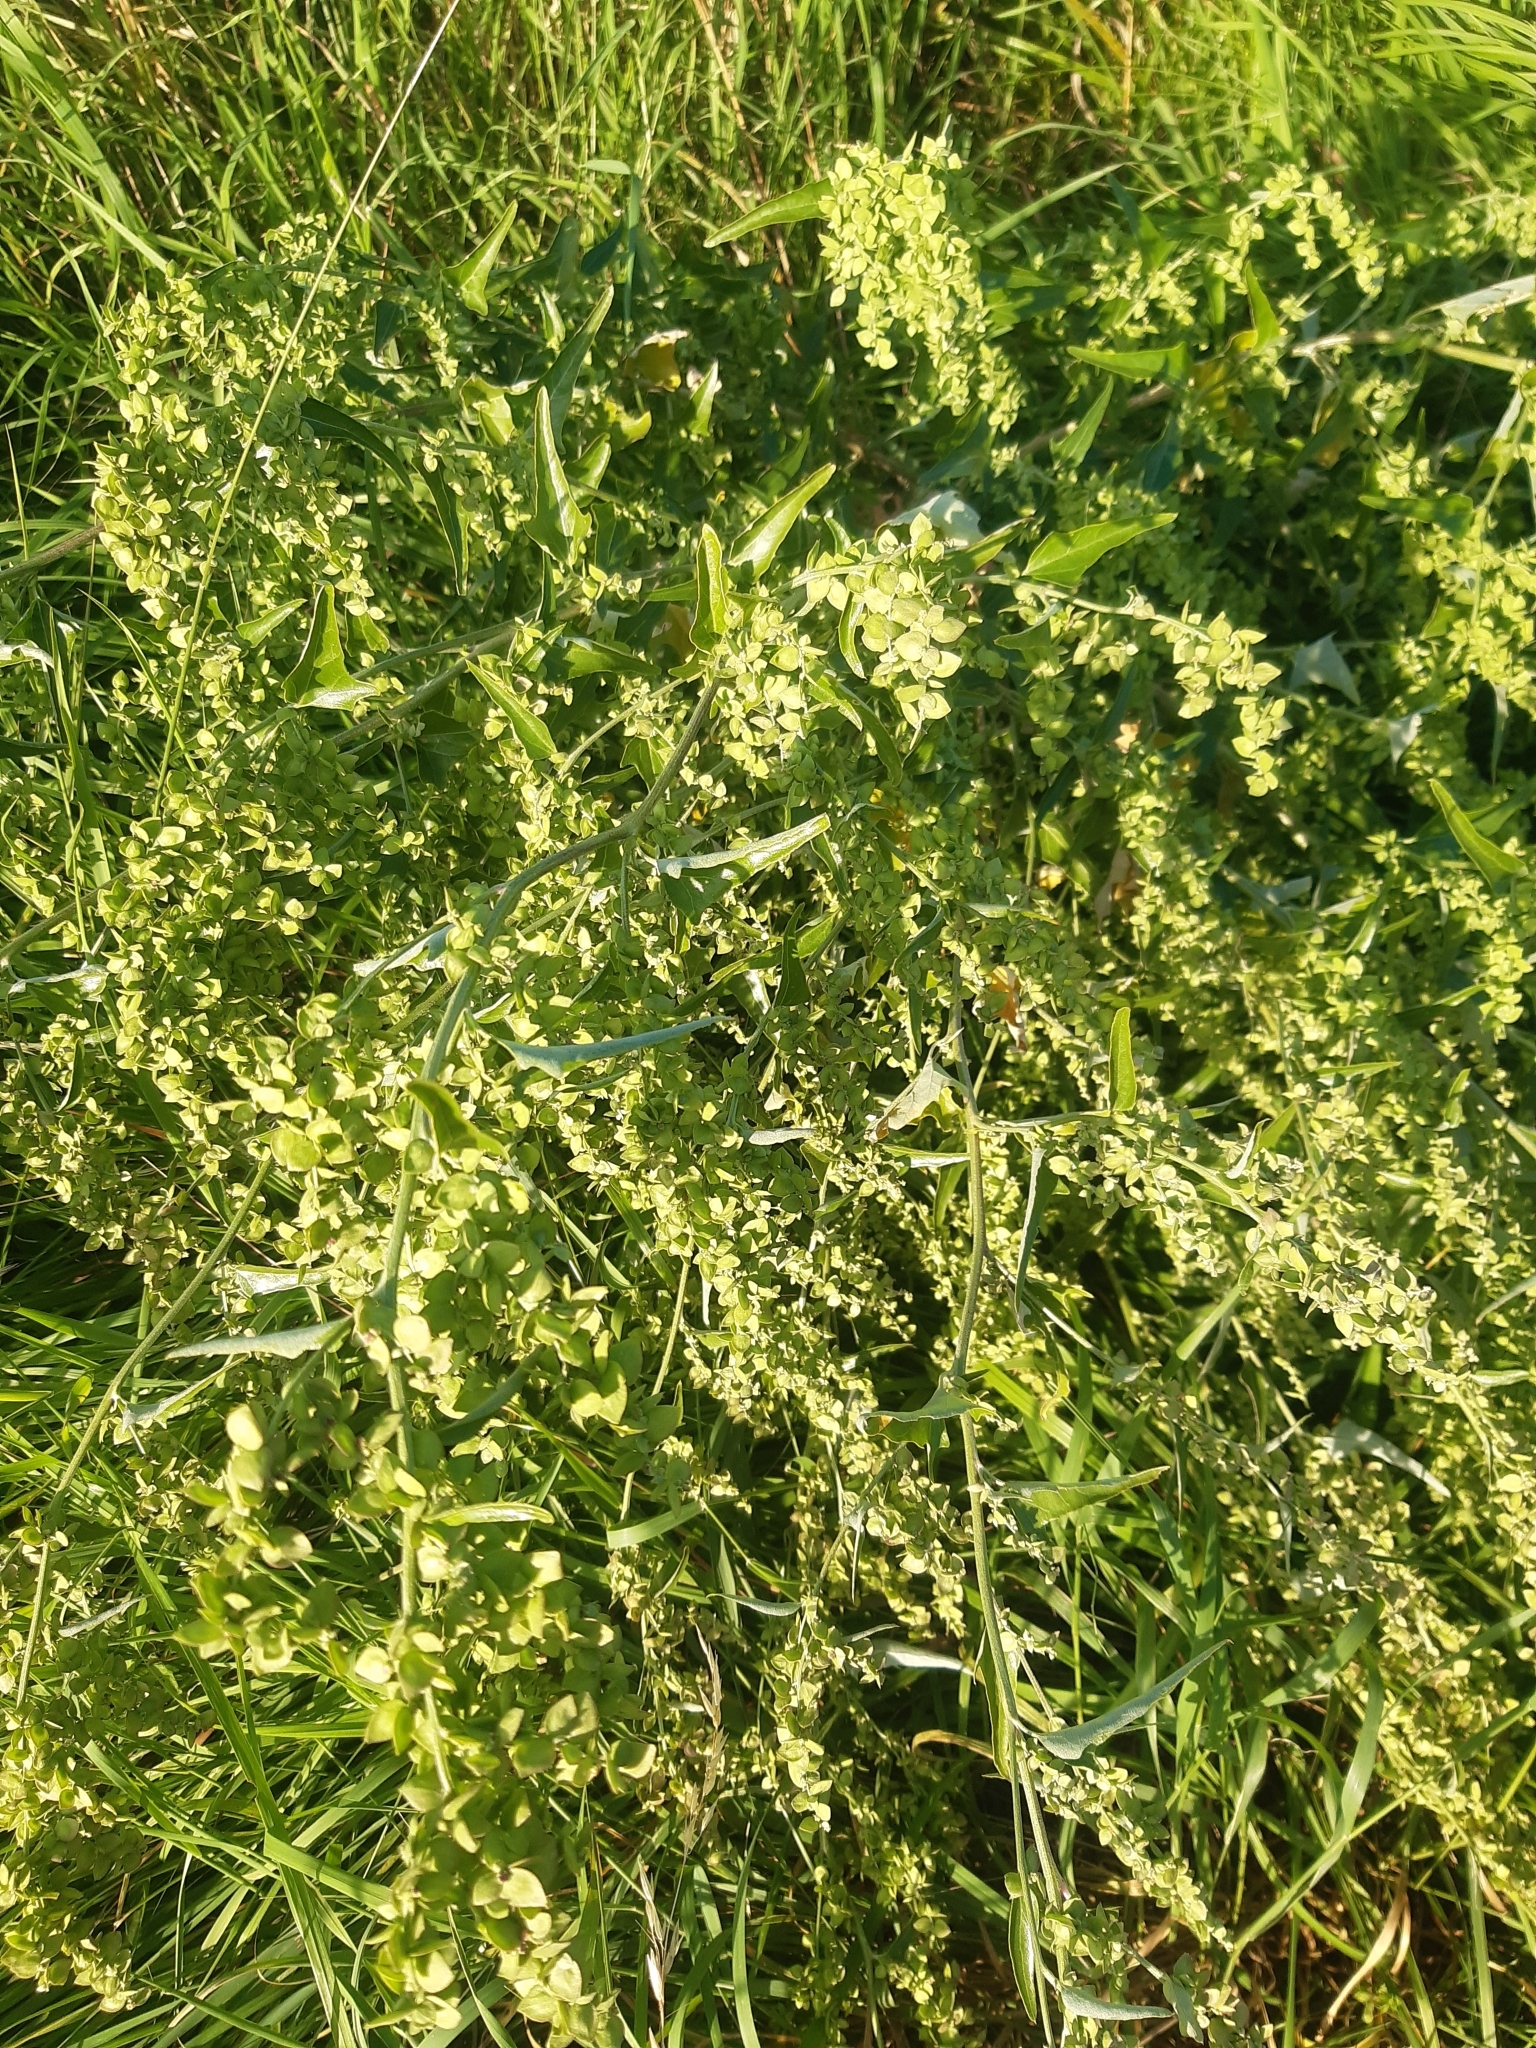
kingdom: Plantae
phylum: Tracheophyta
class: Magnoliopsida
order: Caryophyllales
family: Amaranthaceae
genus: Atriplex
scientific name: Atriplex sagittata
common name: Purple orache
